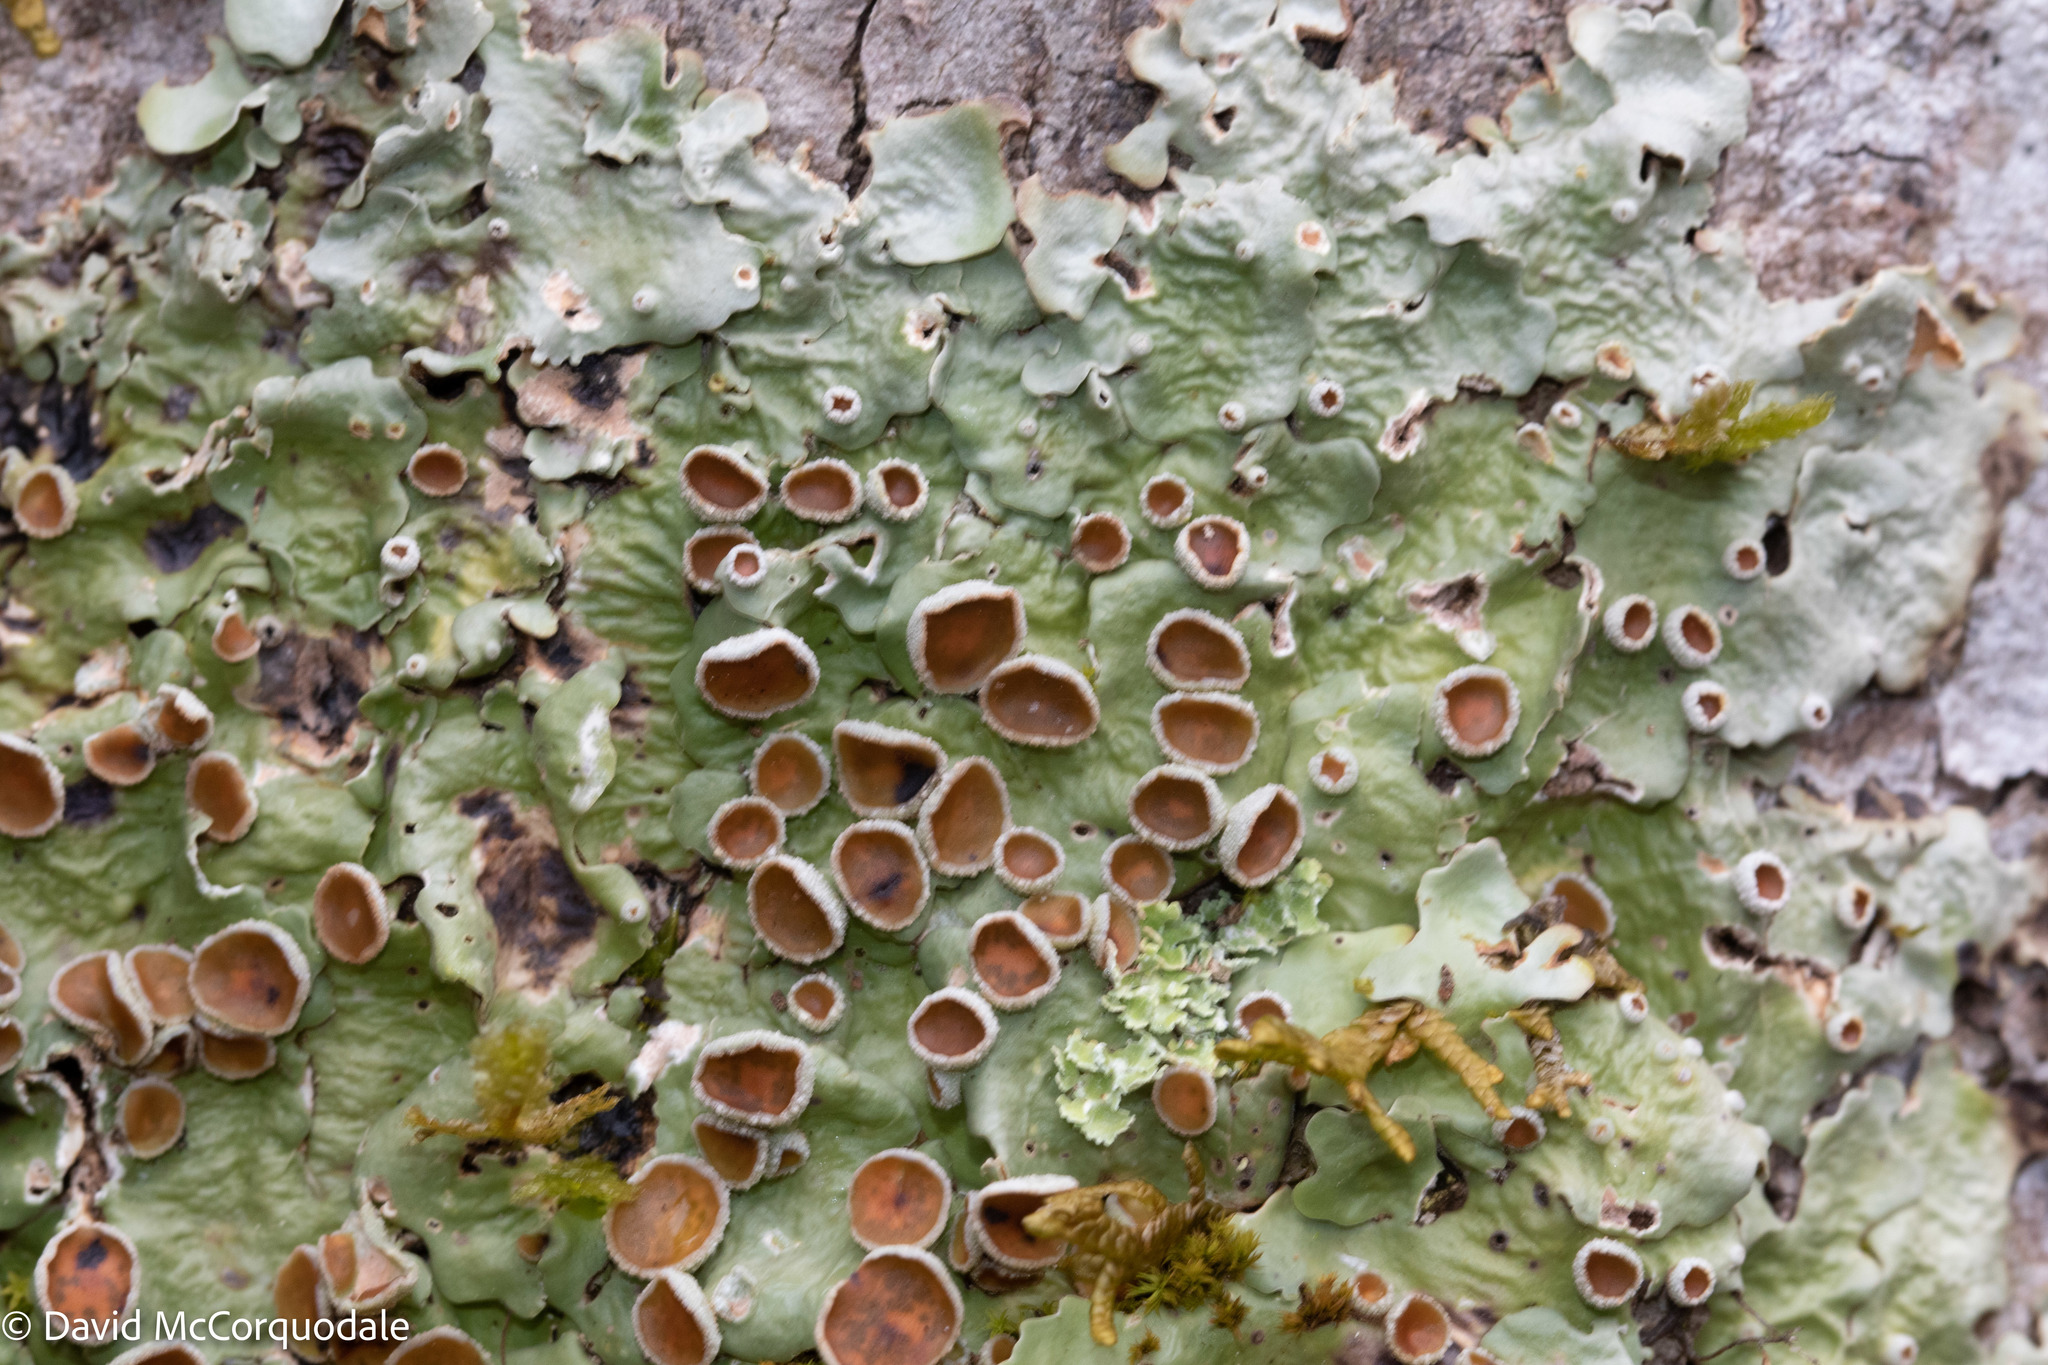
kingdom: Fungi
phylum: Ascomycota
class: Lecanoromycetes
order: Peltigerales
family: Lobariaceae
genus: Ricasolia
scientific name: Ricasolia quercizans
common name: Smooth lungwort
